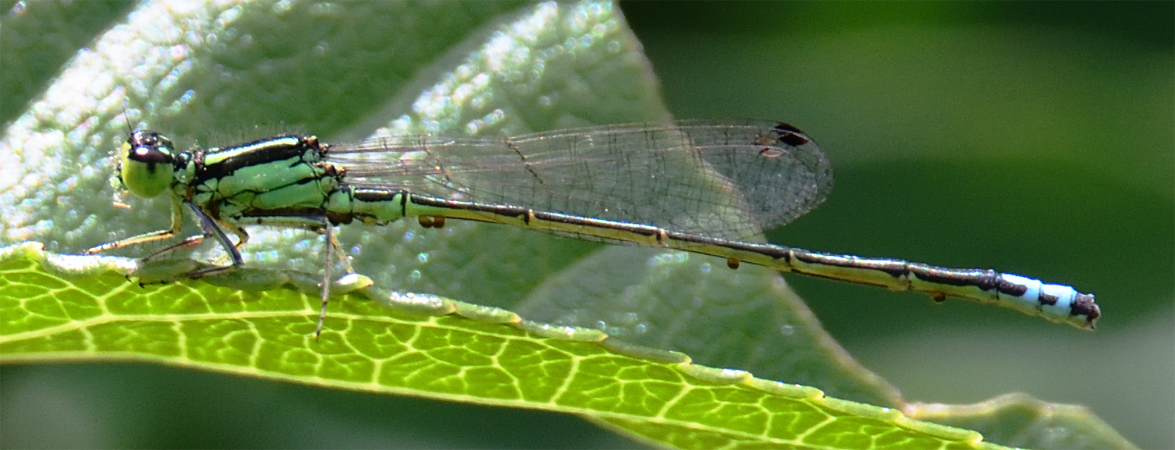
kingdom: Animalia
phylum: Arthropoda
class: Insecta
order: Odonata
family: Coenagrionidae
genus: Ischnura
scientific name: Ischnura verticalis
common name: Eastern forktail
